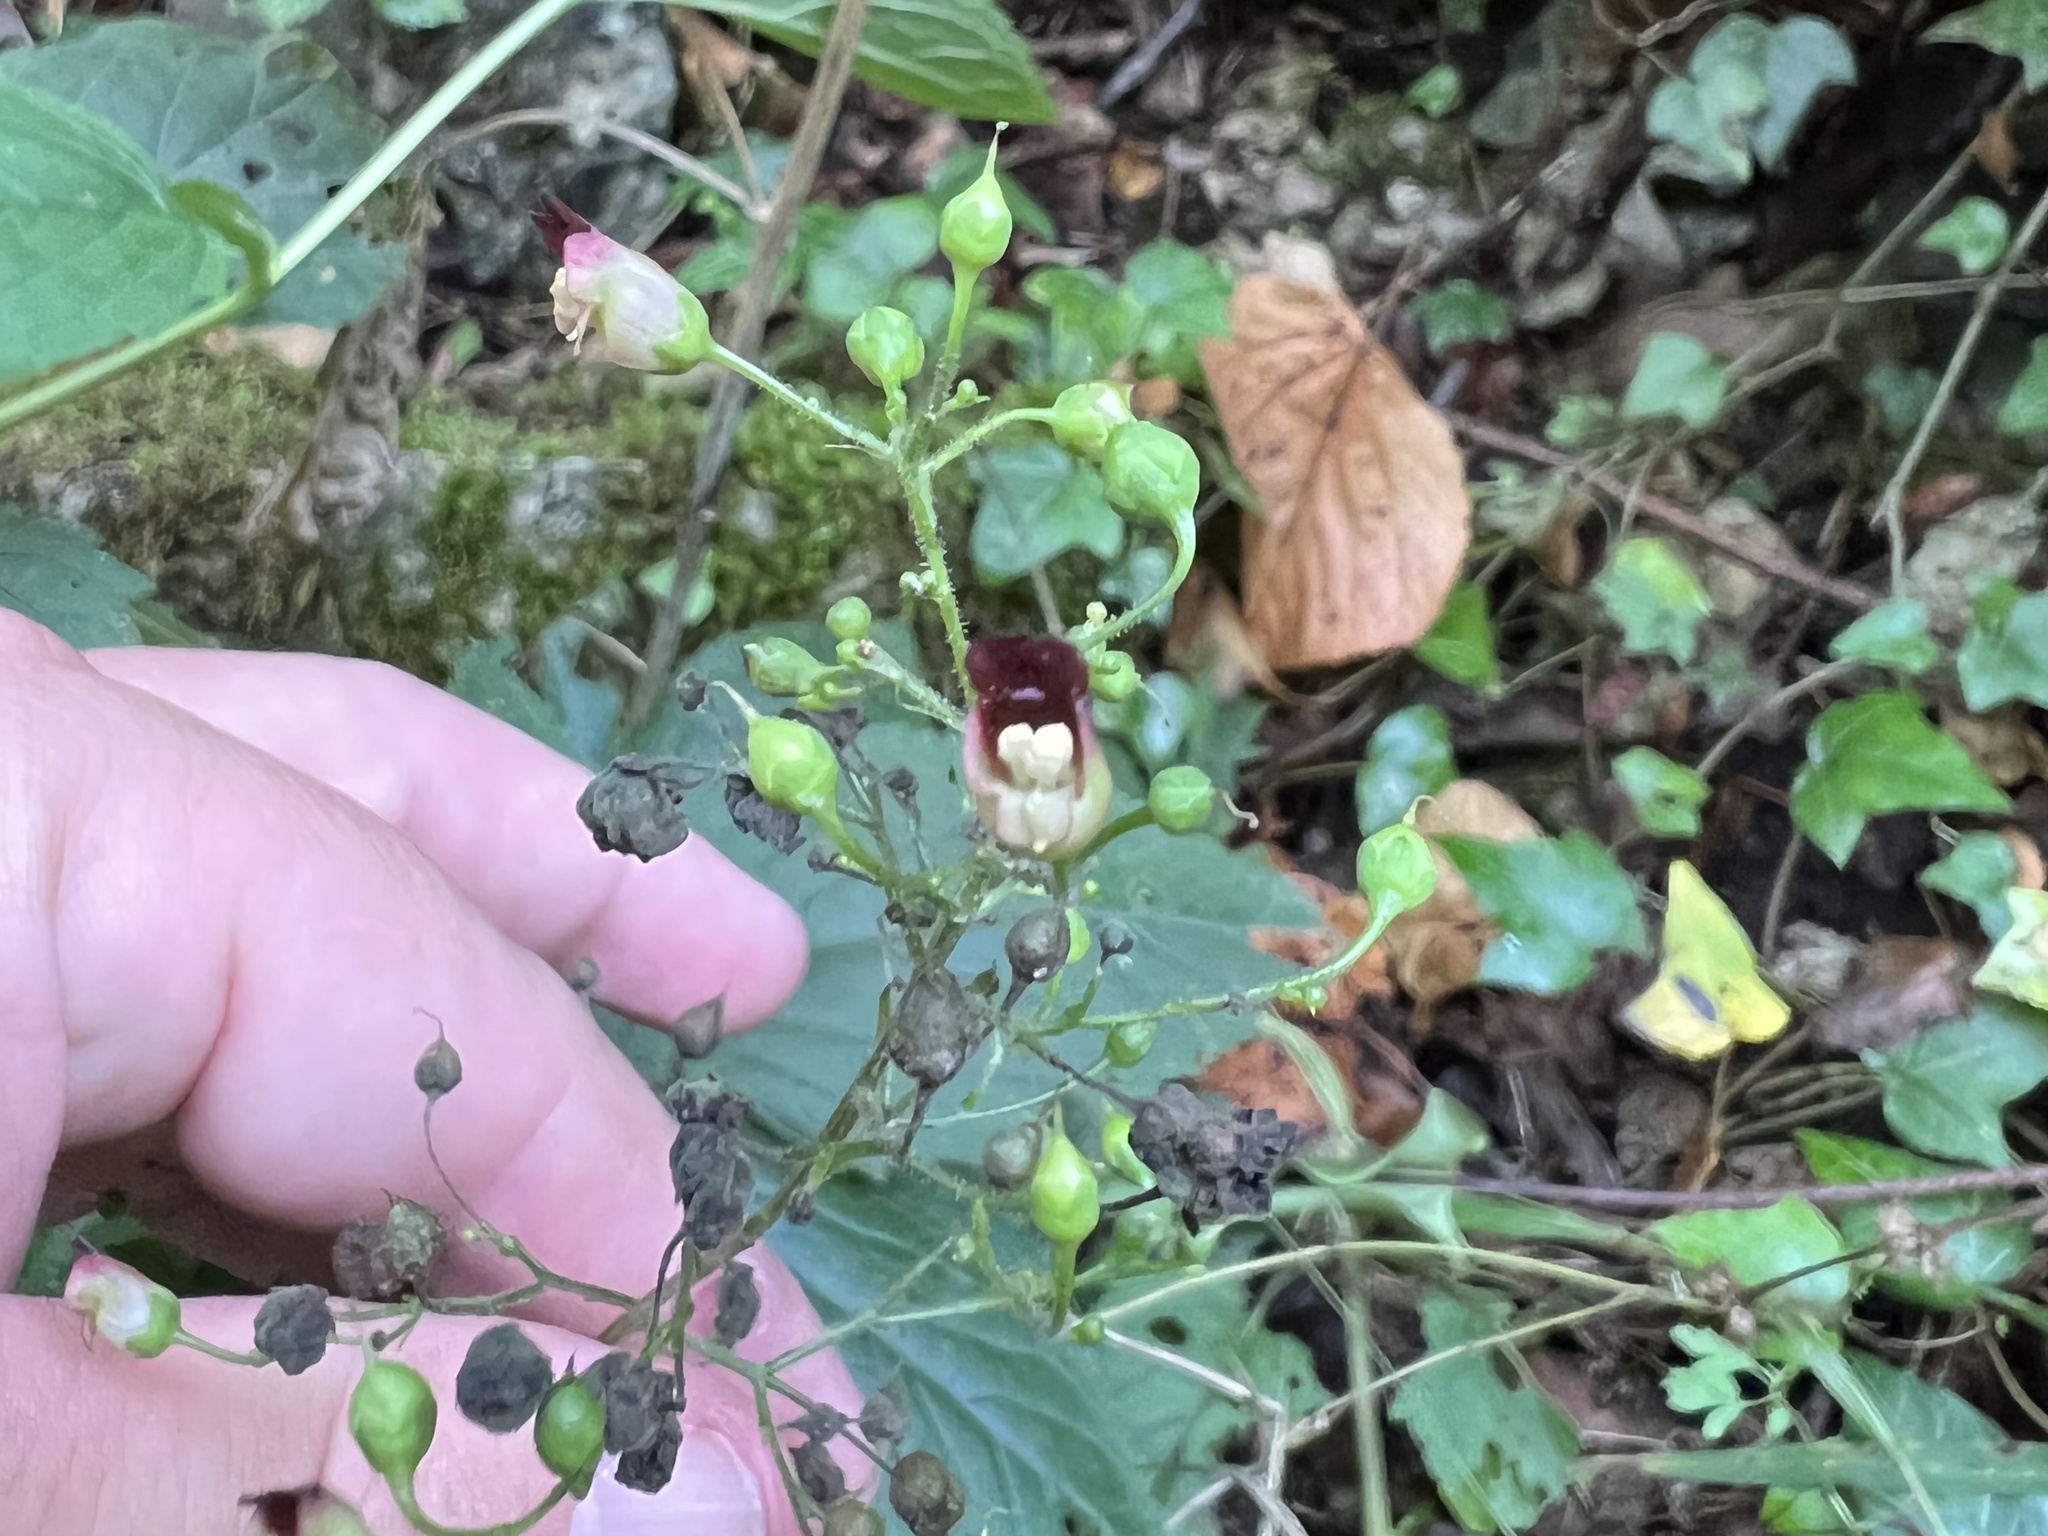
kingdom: Plantae
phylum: Tracheophyta
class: Magnoliopsida
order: Lamiales
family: Scrophulariaceae
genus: Scrophularia
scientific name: Scrophularia nodosa
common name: Common figwort
